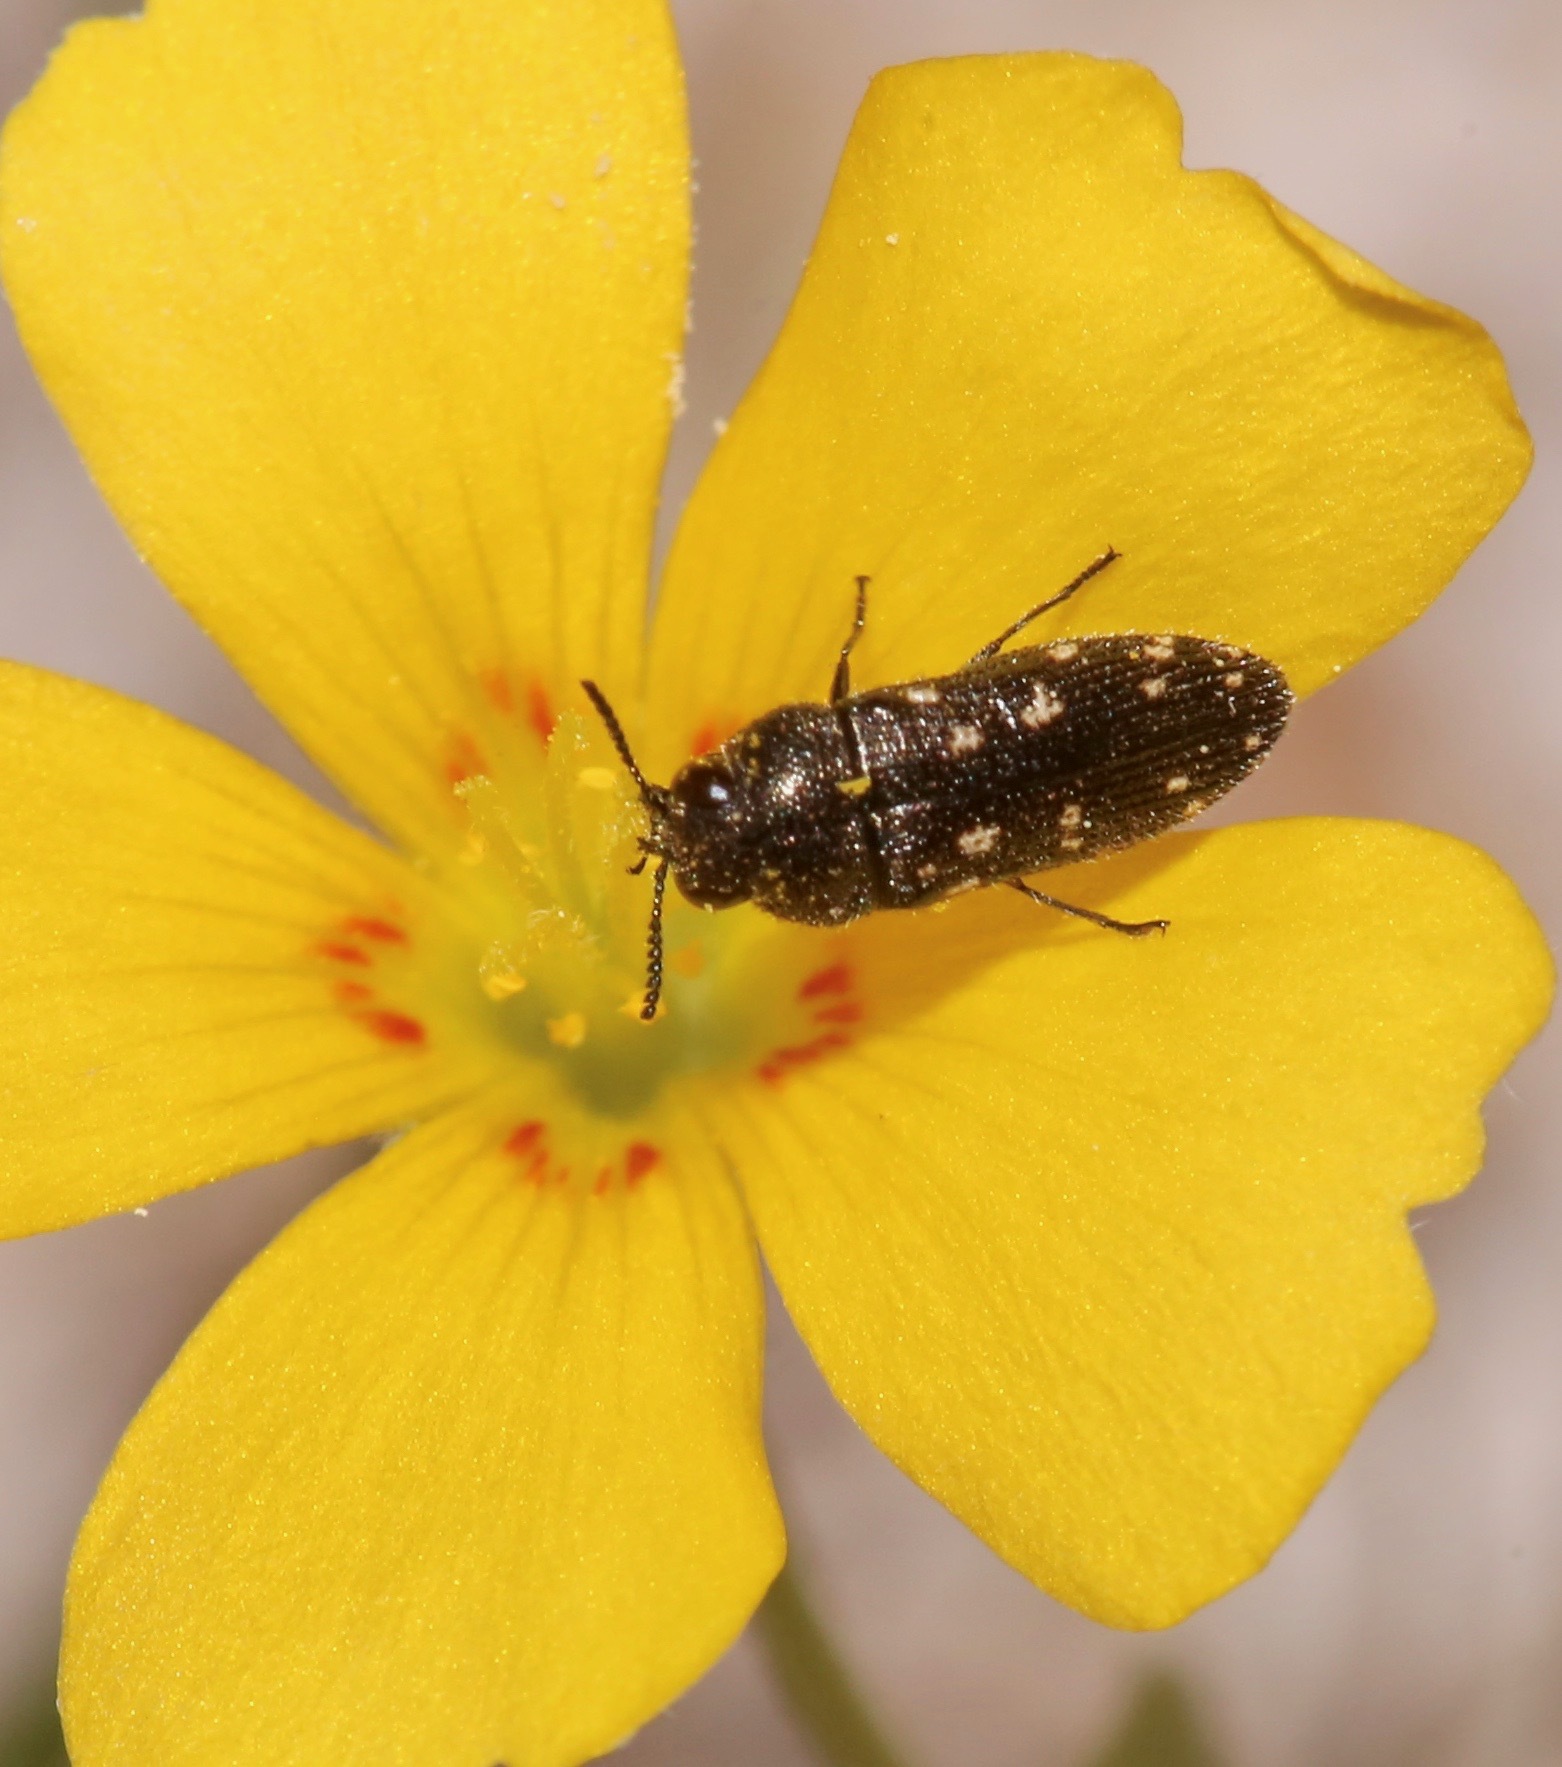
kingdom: Animalia
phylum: Arthropoda
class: Insecta
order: Coleoptera
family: Buprestidae
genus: Acmaeodera
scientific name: Acmaeodera tubulus
